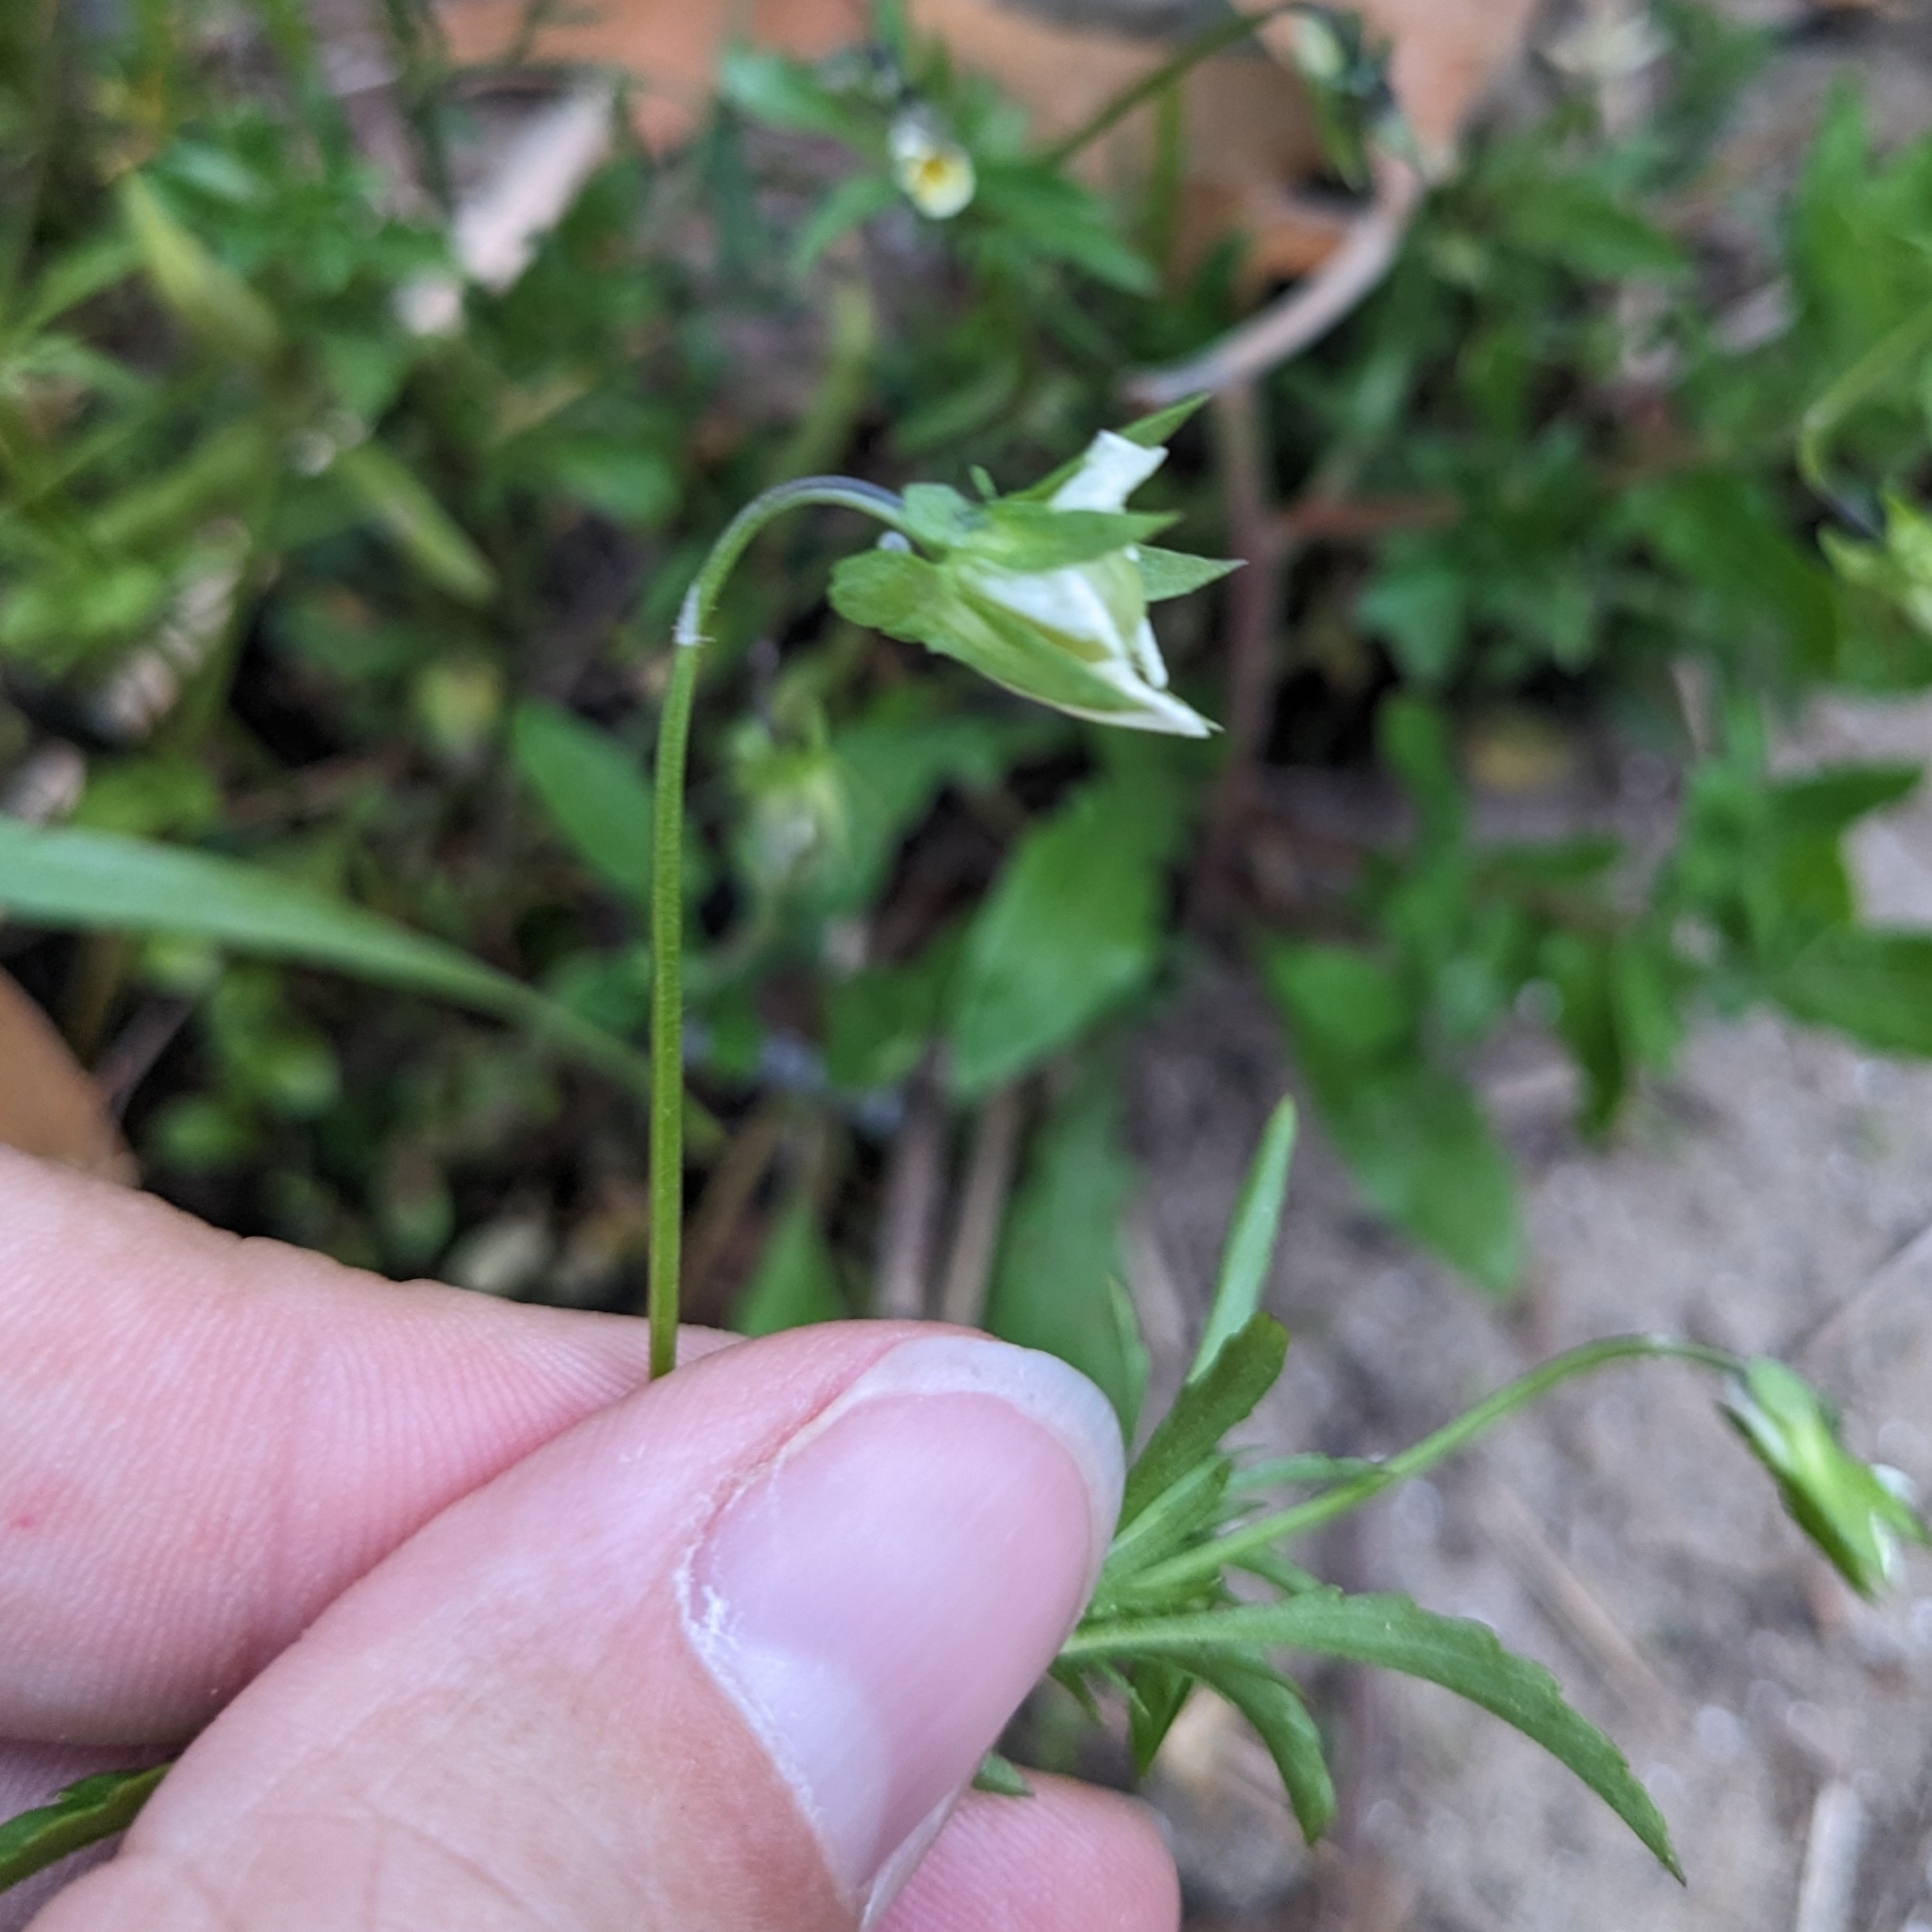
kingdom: Plantae
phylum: Tracheophyta
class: Magnoliopsida
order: Malpighiales
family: Violaceae
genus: Viola
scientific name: Viola arvensis
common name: Field pansy
